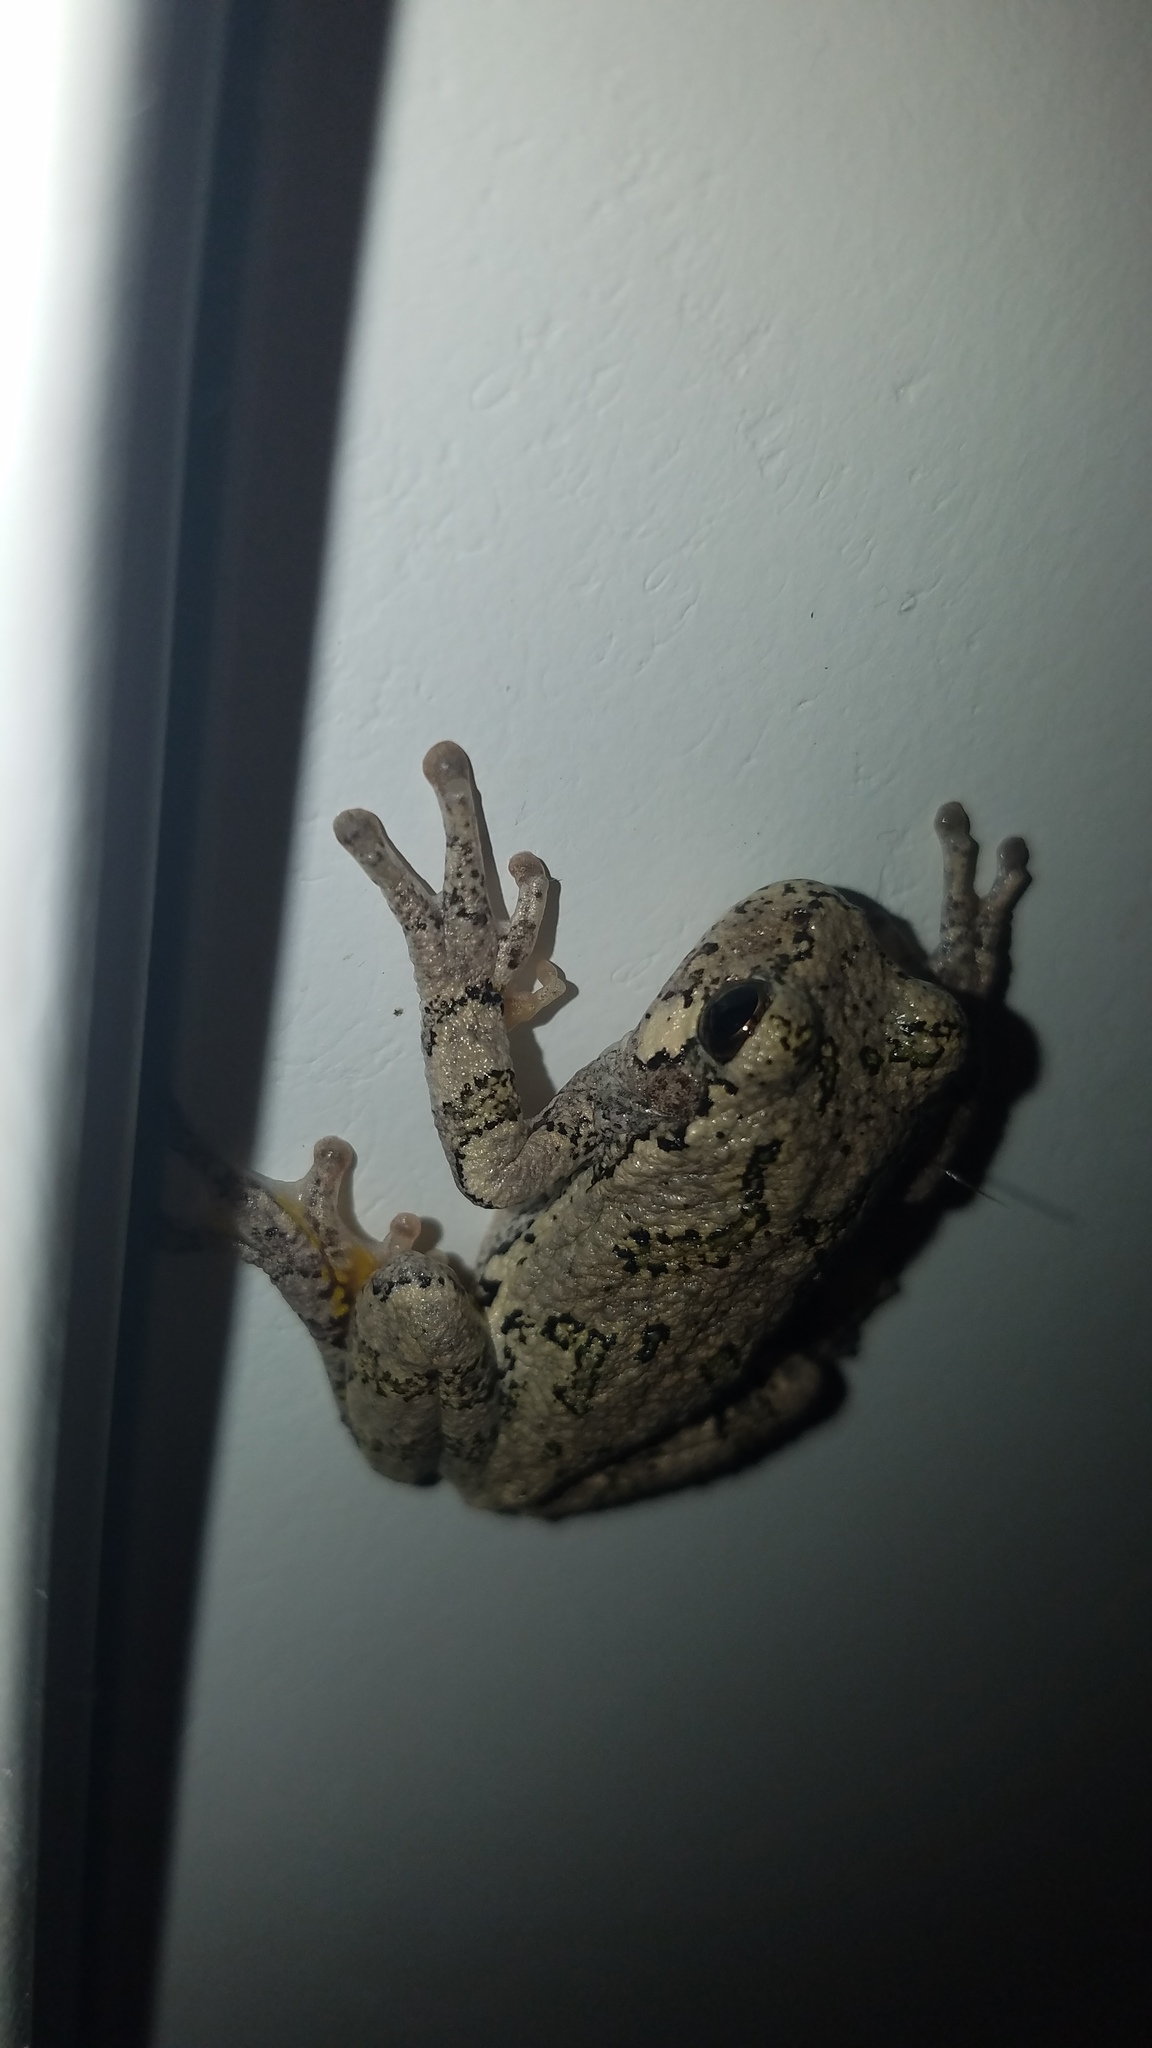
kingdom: Animalia
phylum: Chordata
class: Amphibia
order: Anura
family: Hylidae
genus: Hyla
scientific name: Hyla
